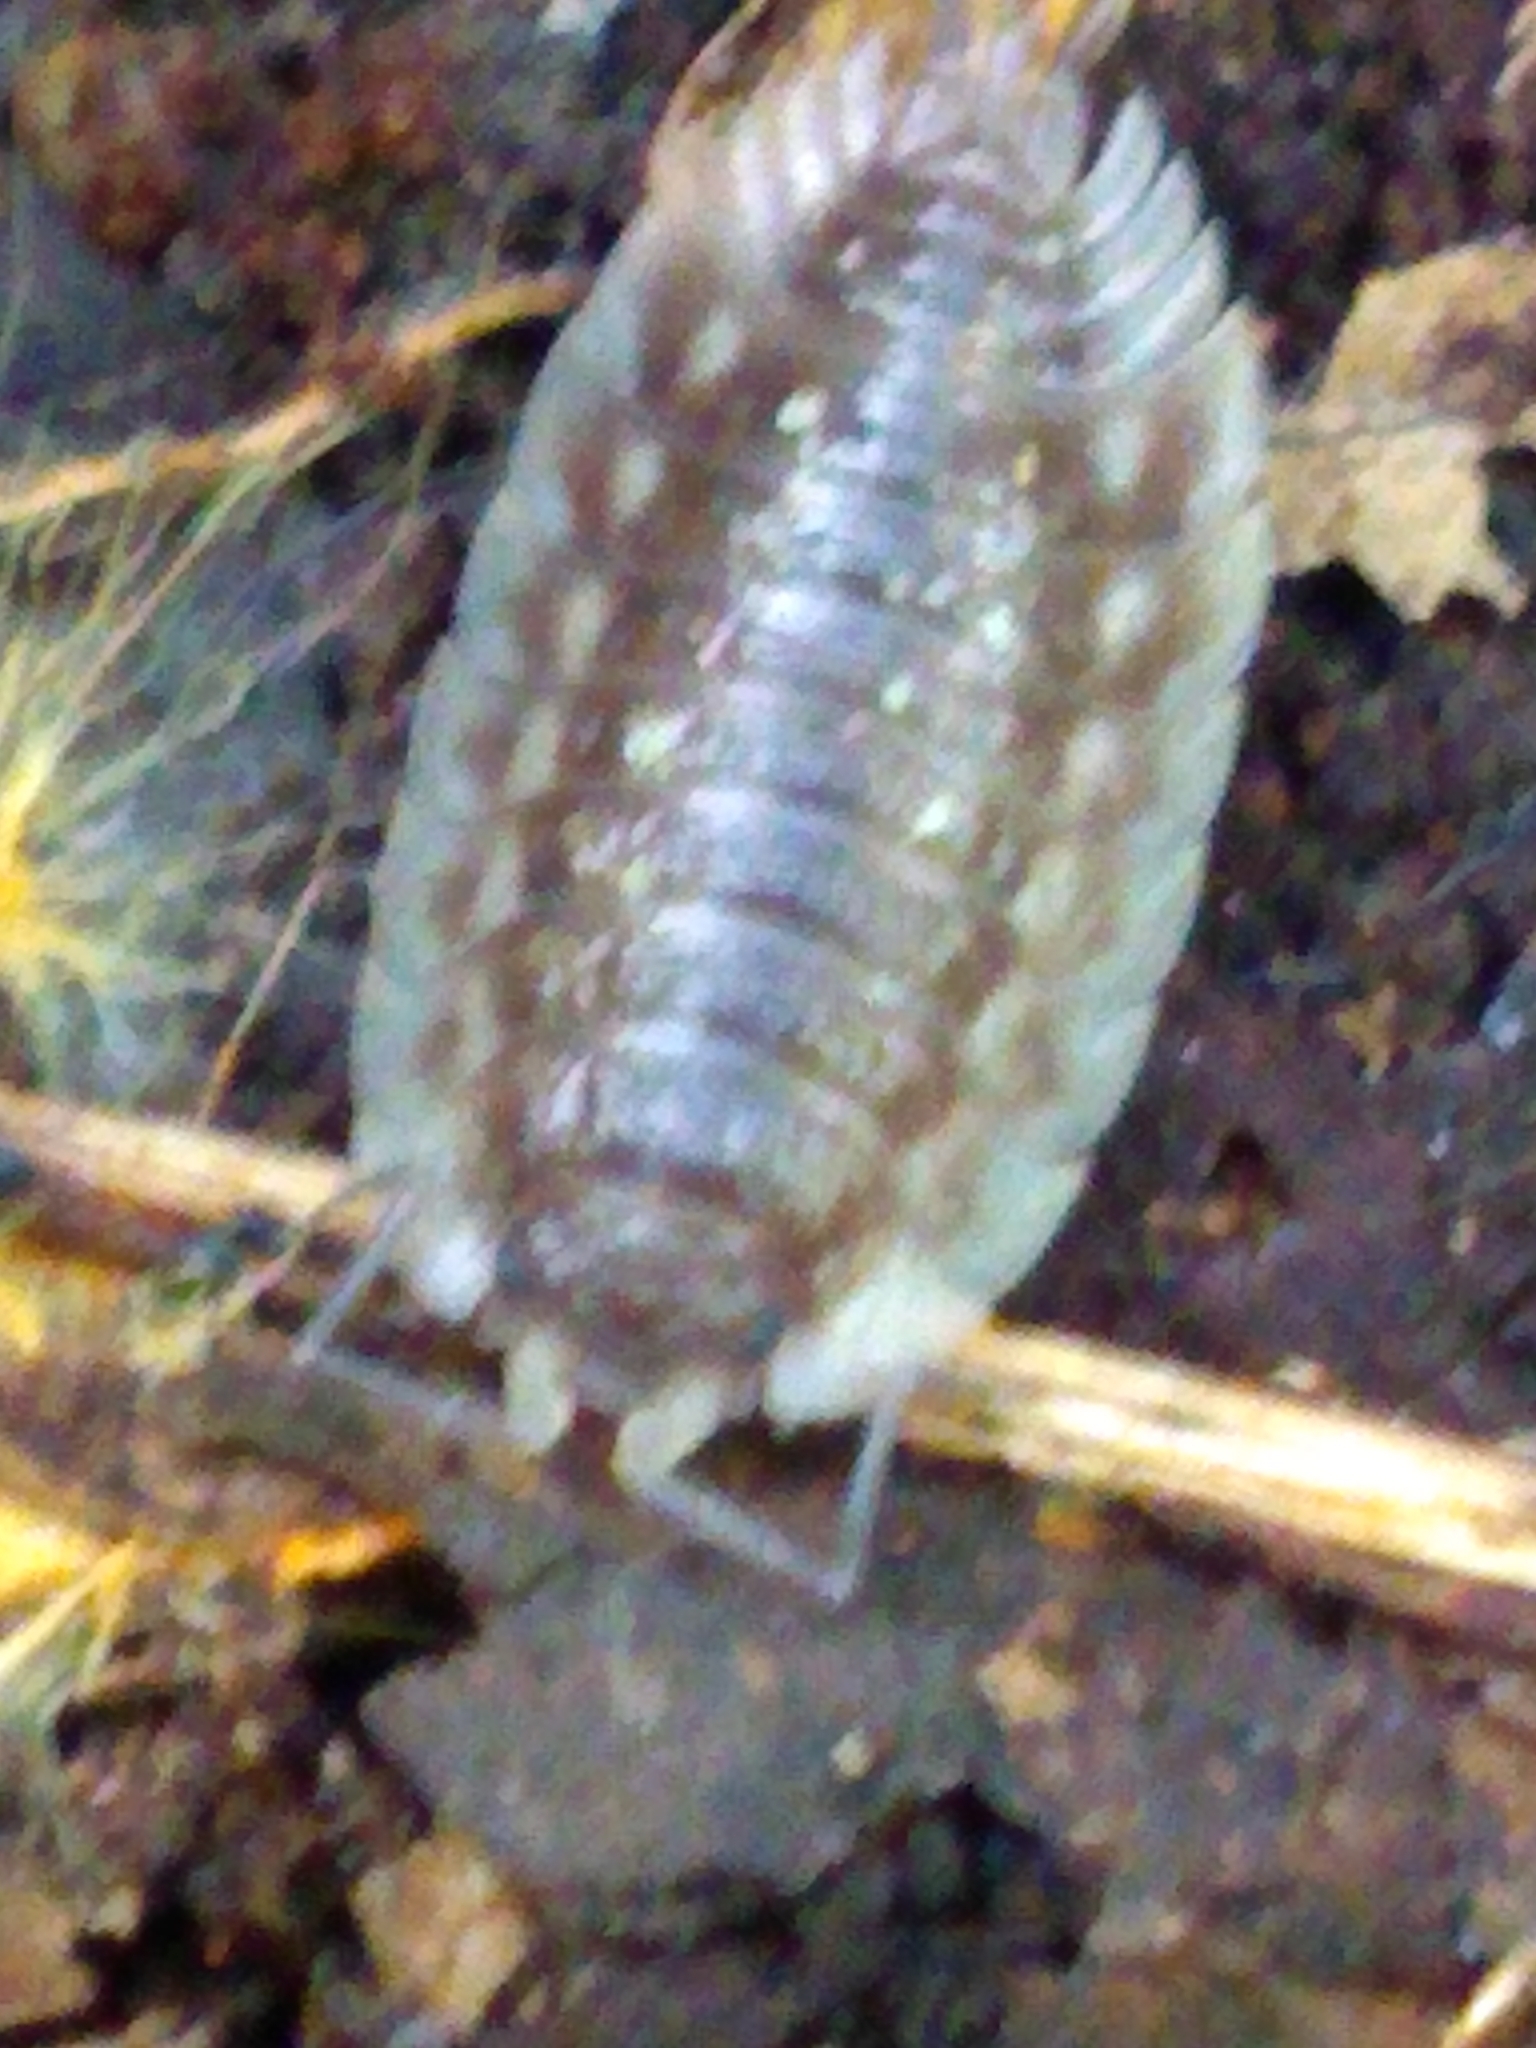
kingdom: Animalia
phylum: Arthropoda
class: Malacostraca
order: Isopoda
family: Oniscidae
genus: Oniscus
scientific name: Oniscus asellus
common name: Common shiny woodlouse
